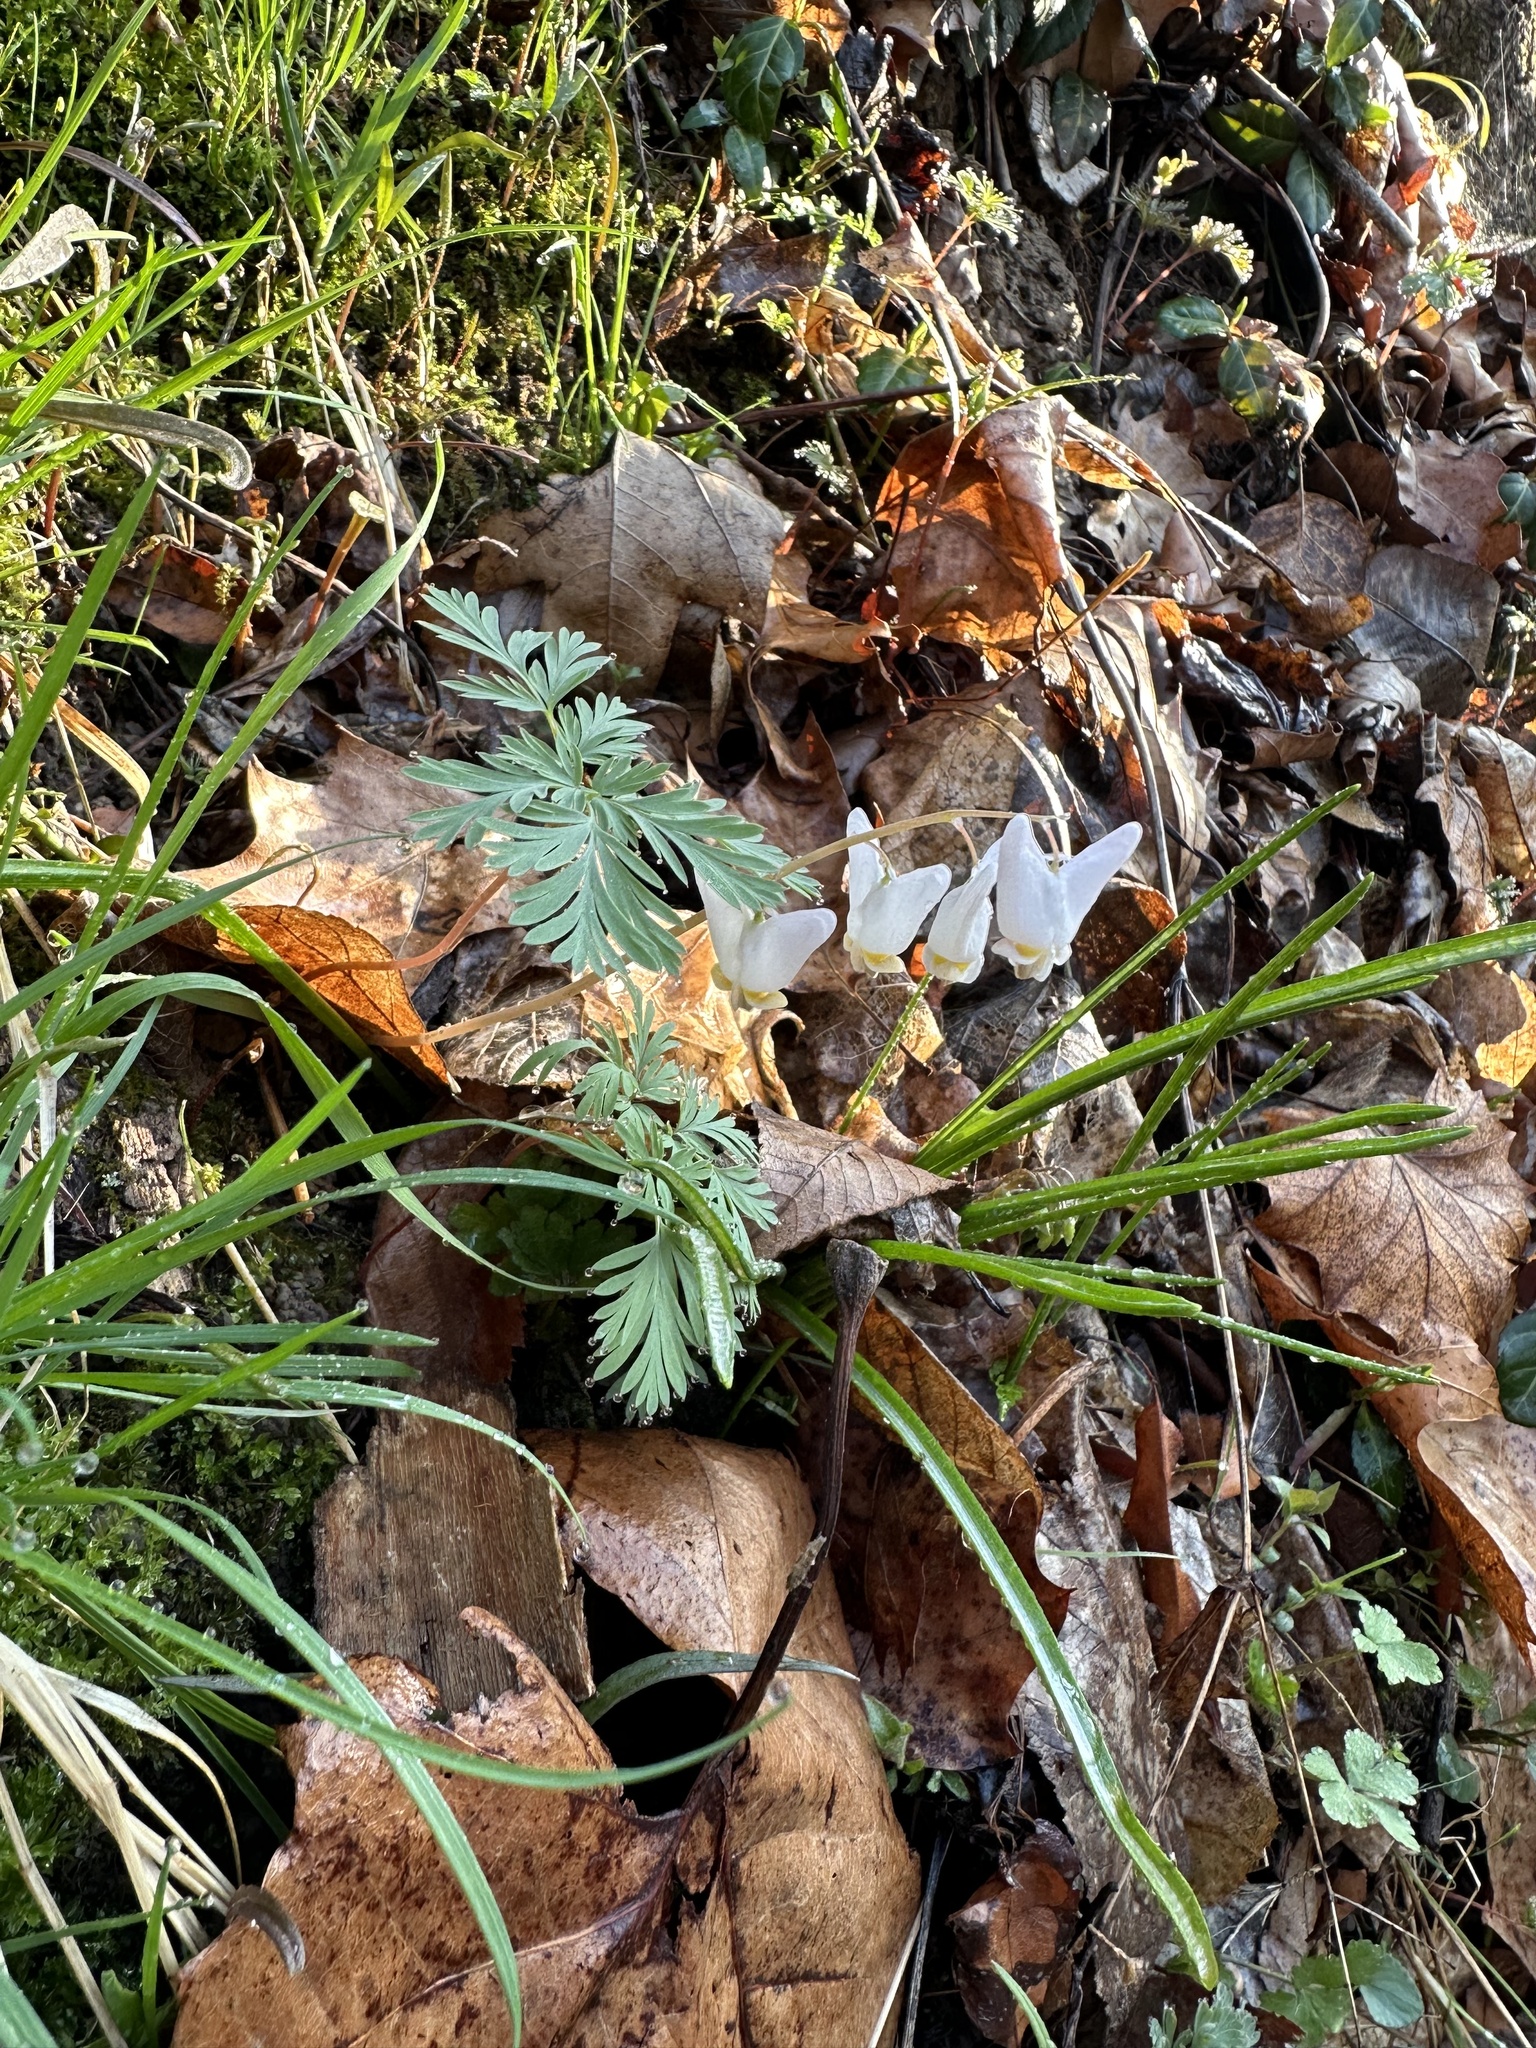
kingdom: Plantae
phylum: Tracheophyta
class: Magnoliopsida
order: Ranunculales
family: Papaveraceae
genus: Dicentra
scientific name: Dicentra cucullaria
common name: Dutchman's breeches
